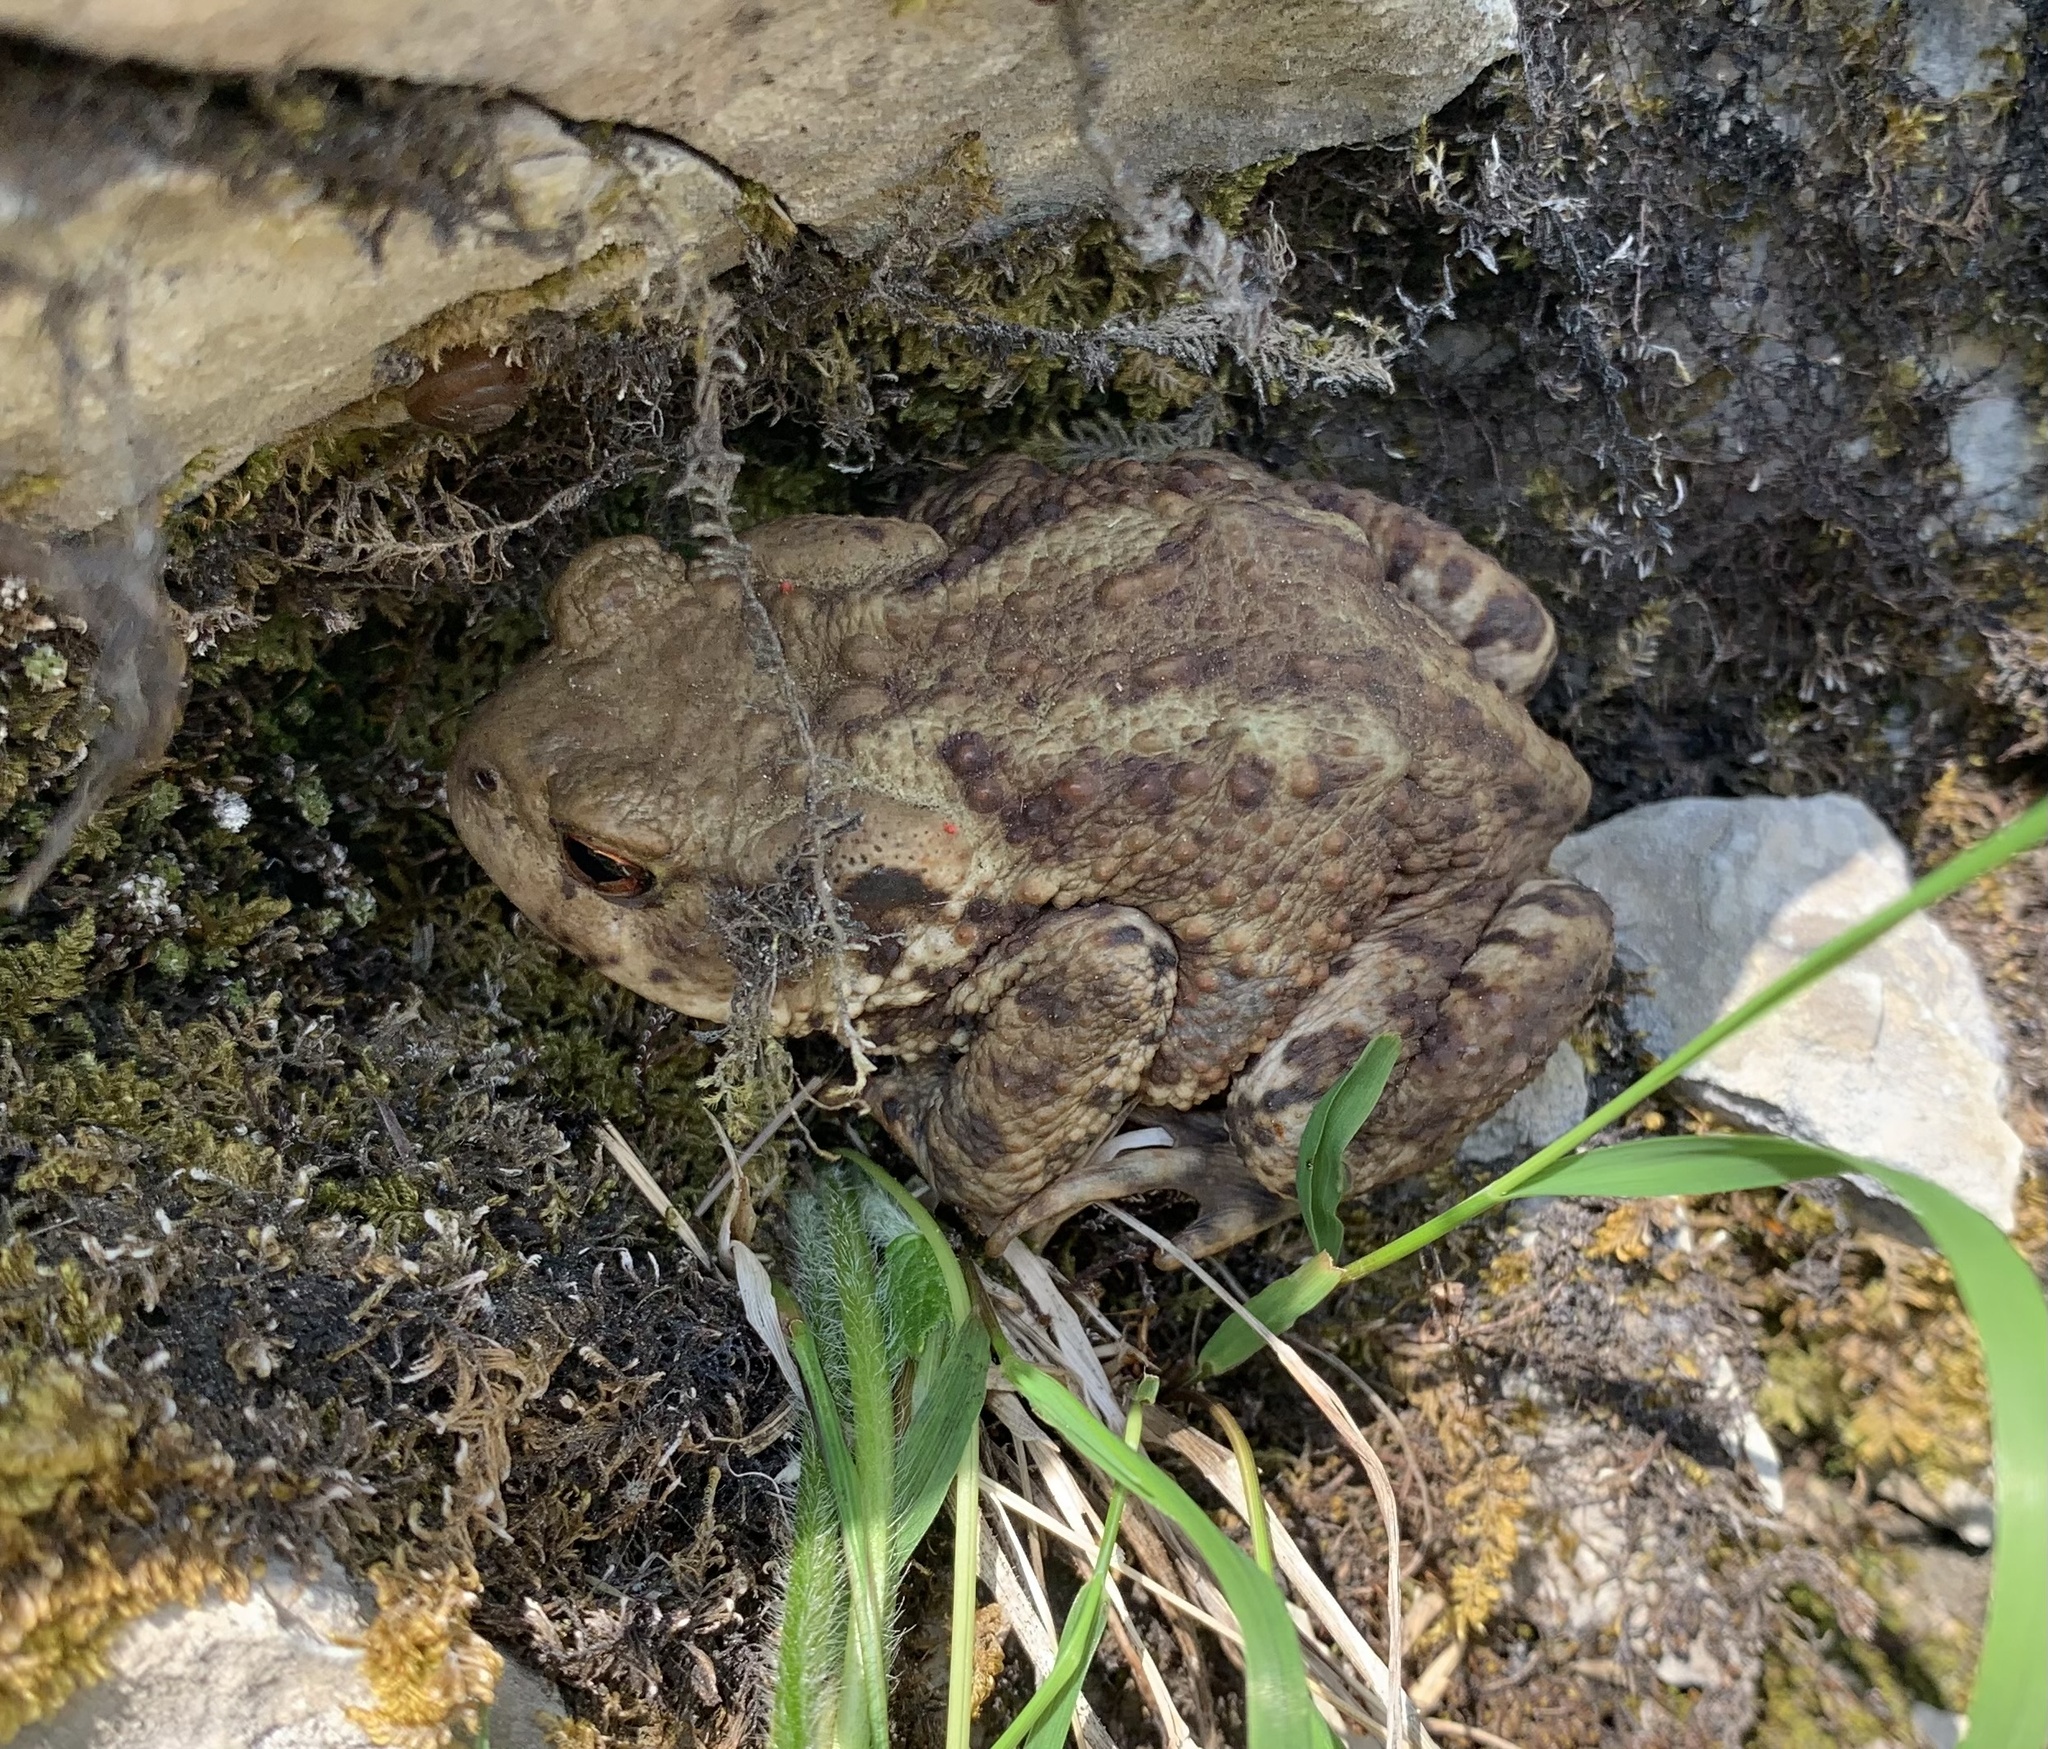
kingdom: Animalia
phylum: Chordata
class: Amphibia
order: Anura
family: Bufonidae
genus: Bufo
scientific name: Bufo bufo
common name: Common toad
